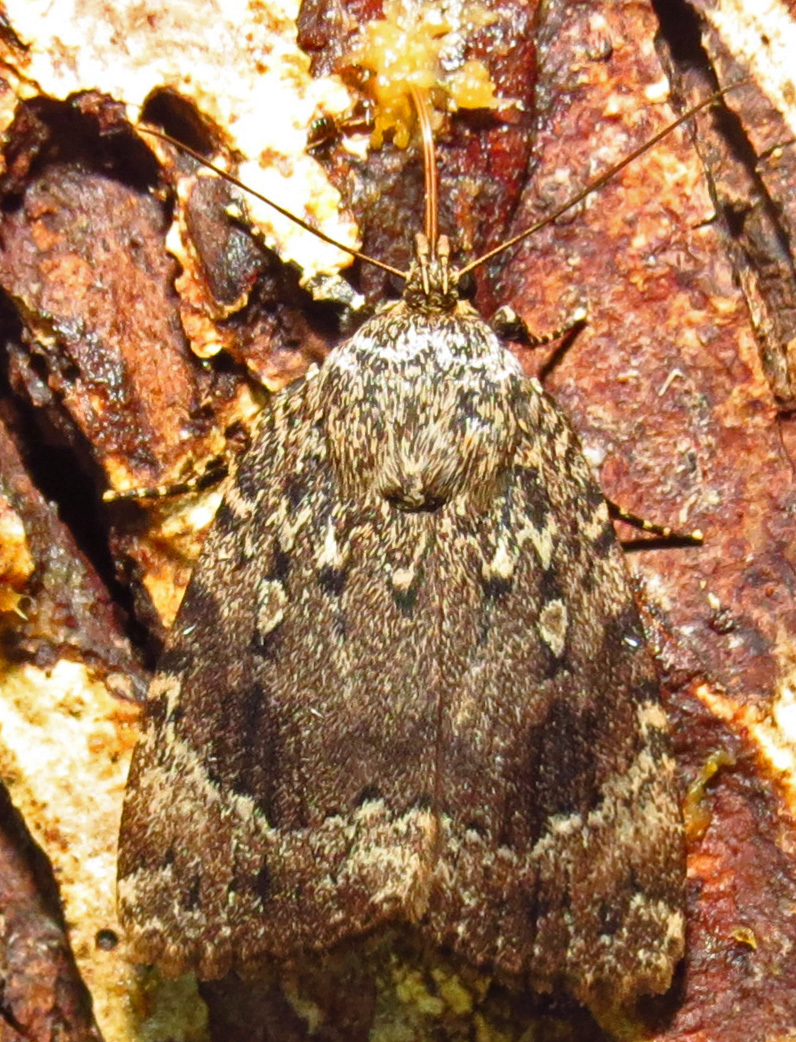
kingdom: Animalia
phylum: Arthropoda
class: Insecta
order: Lepidoptera
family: Noctuidae
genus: Amphipyra
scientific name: Amphipyra pyramidoides
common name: American copper underwing
